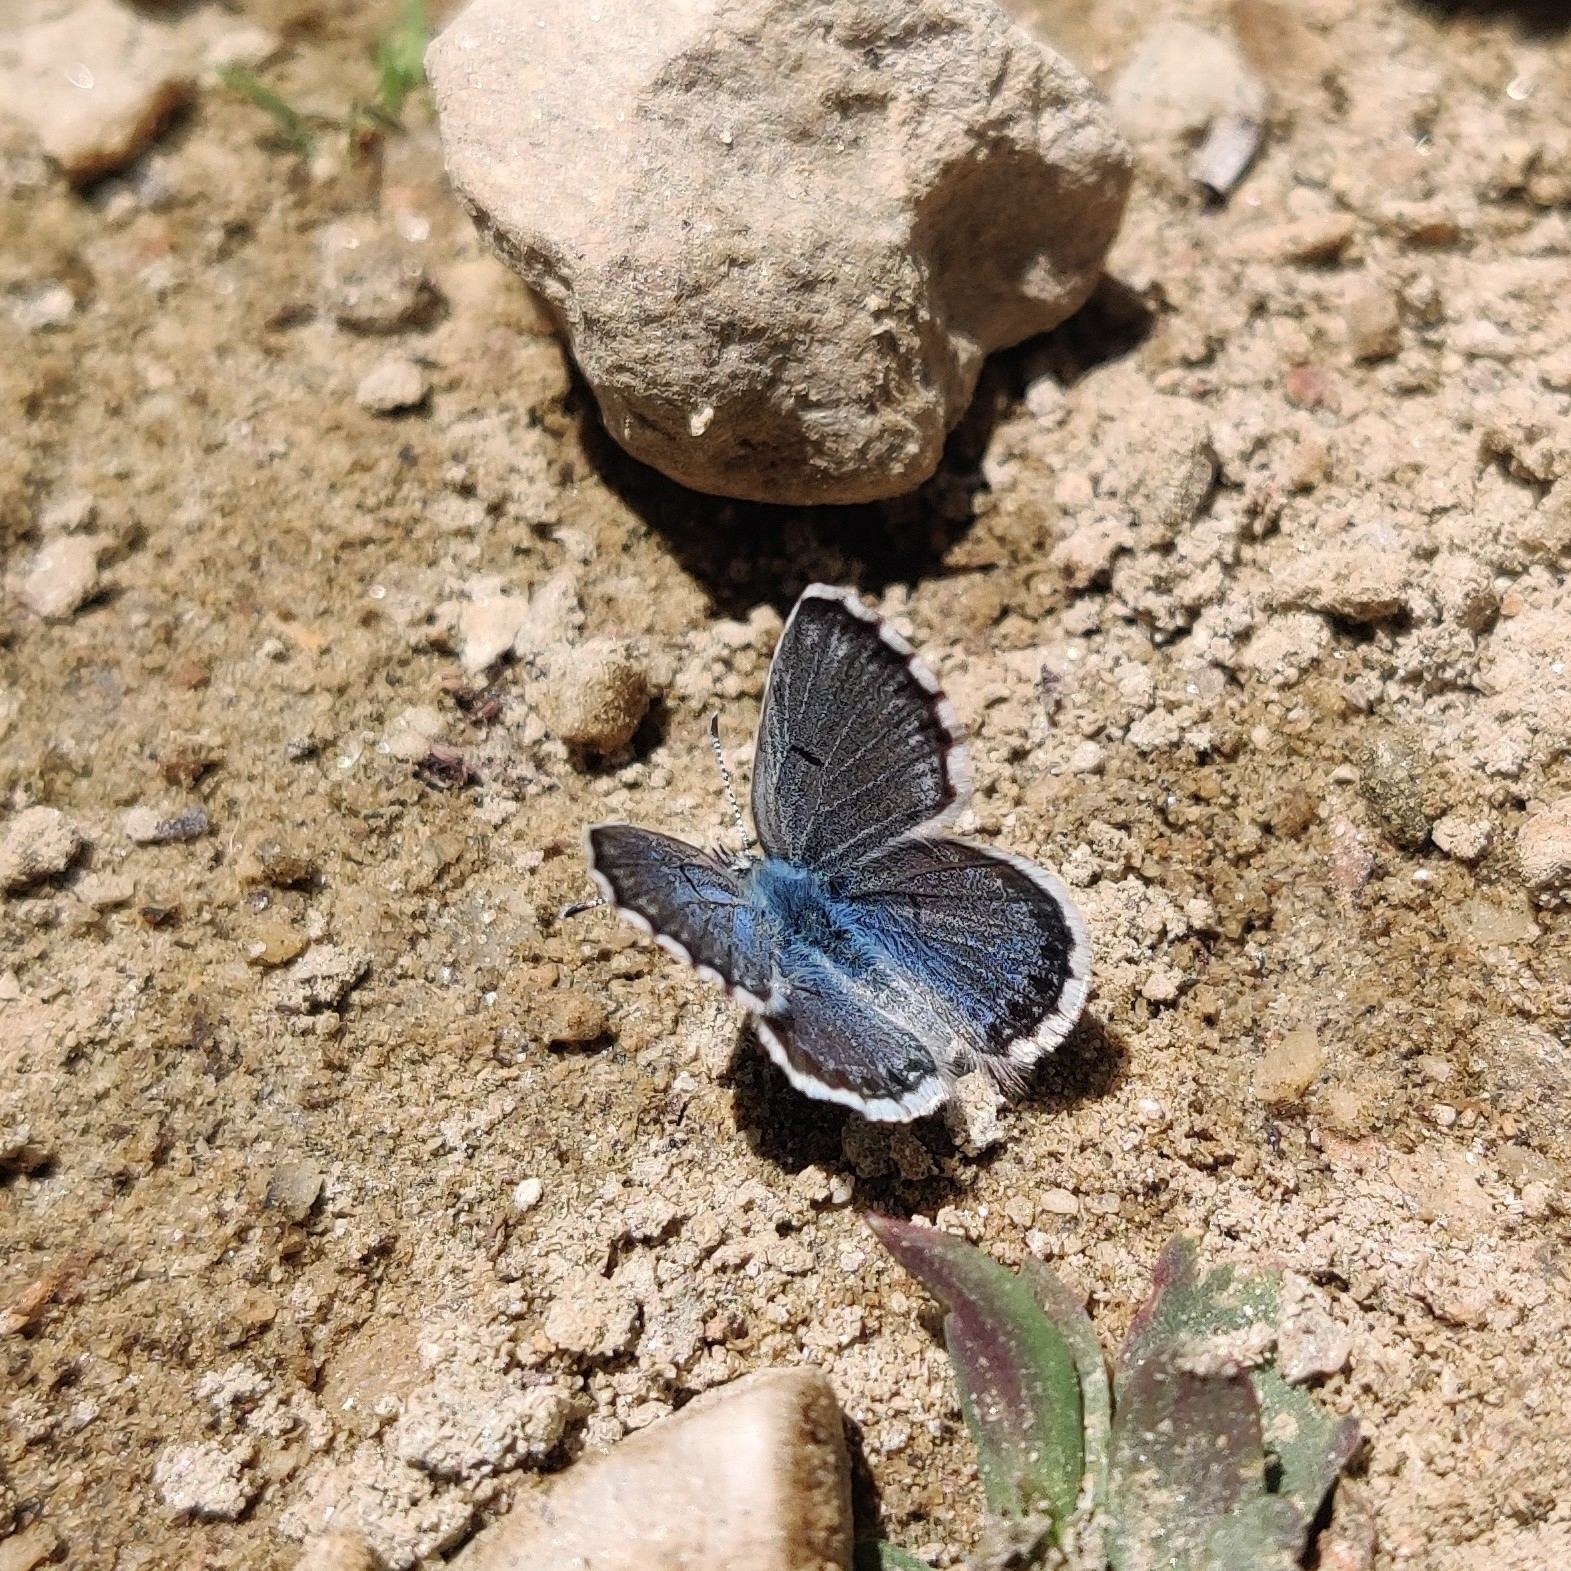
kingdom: Animalia
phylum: Arthropoda
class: Insecta
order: Lepidoptera
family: Lycaenidae
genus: Pseudophilotes
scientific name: Pseudophilotes baton
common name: Baton blue
